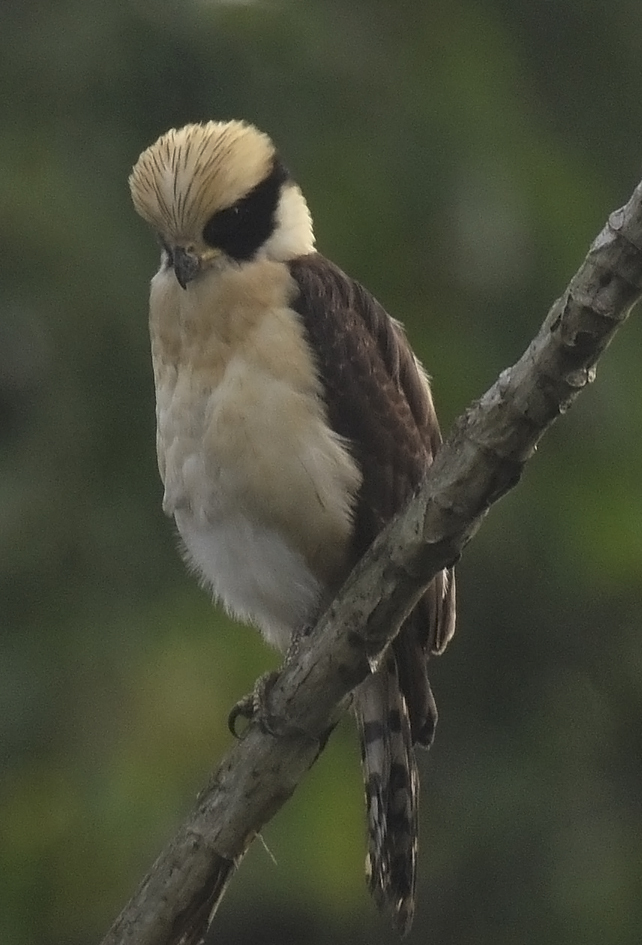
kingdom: Animalia
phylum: Chordata
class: Aves
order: Falconiformes
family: Falconidae
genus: Herpetotheres
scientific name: Herpetotheres cachinnans
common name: Laughing falcon
